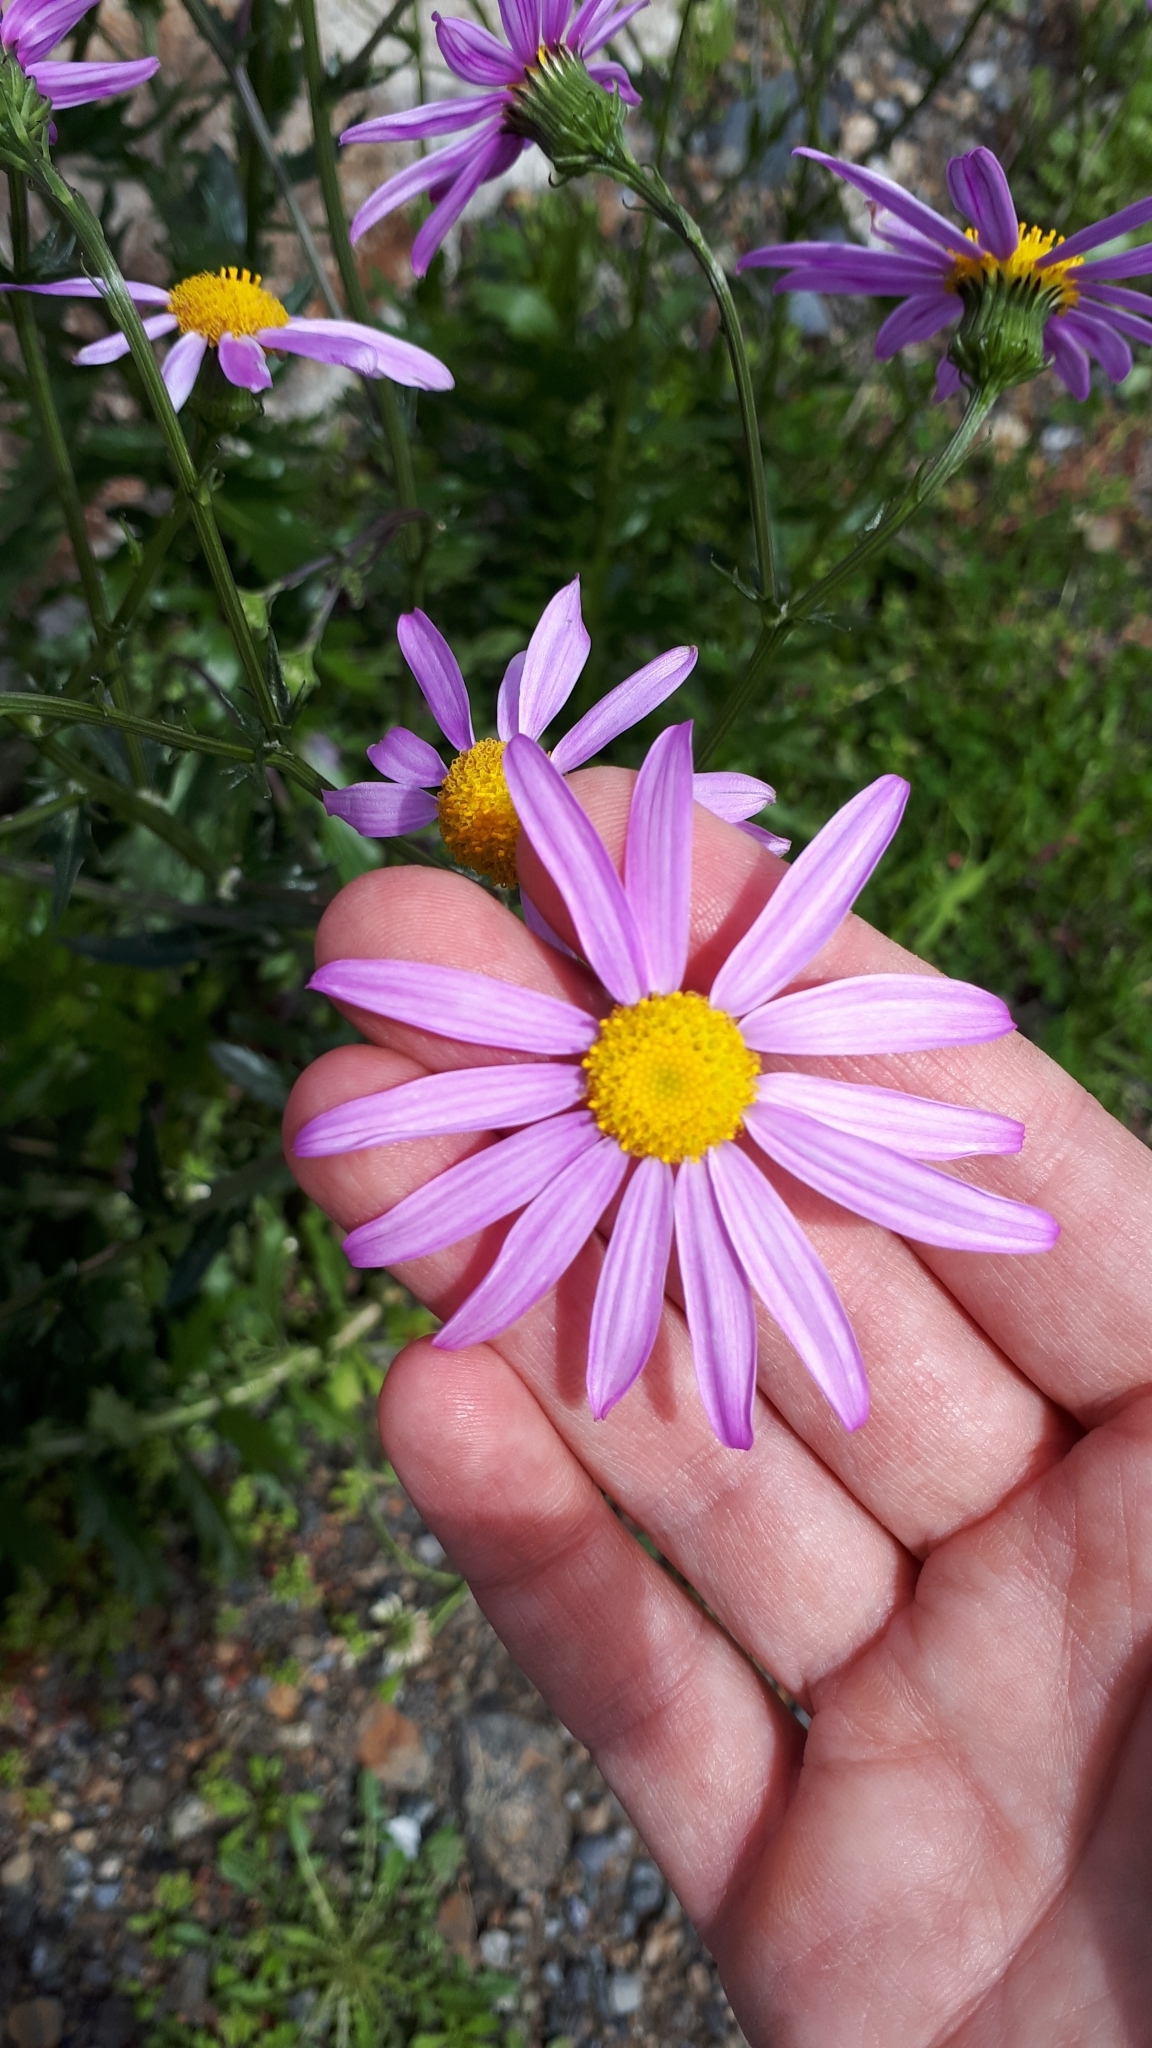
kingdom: Plantae
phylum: Tracheophyta
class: Magnoliopsida
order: Asterales
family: Asteraceae
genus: Senecio
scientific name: Senecio glastifolius
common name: Woad-leaved ragwort
